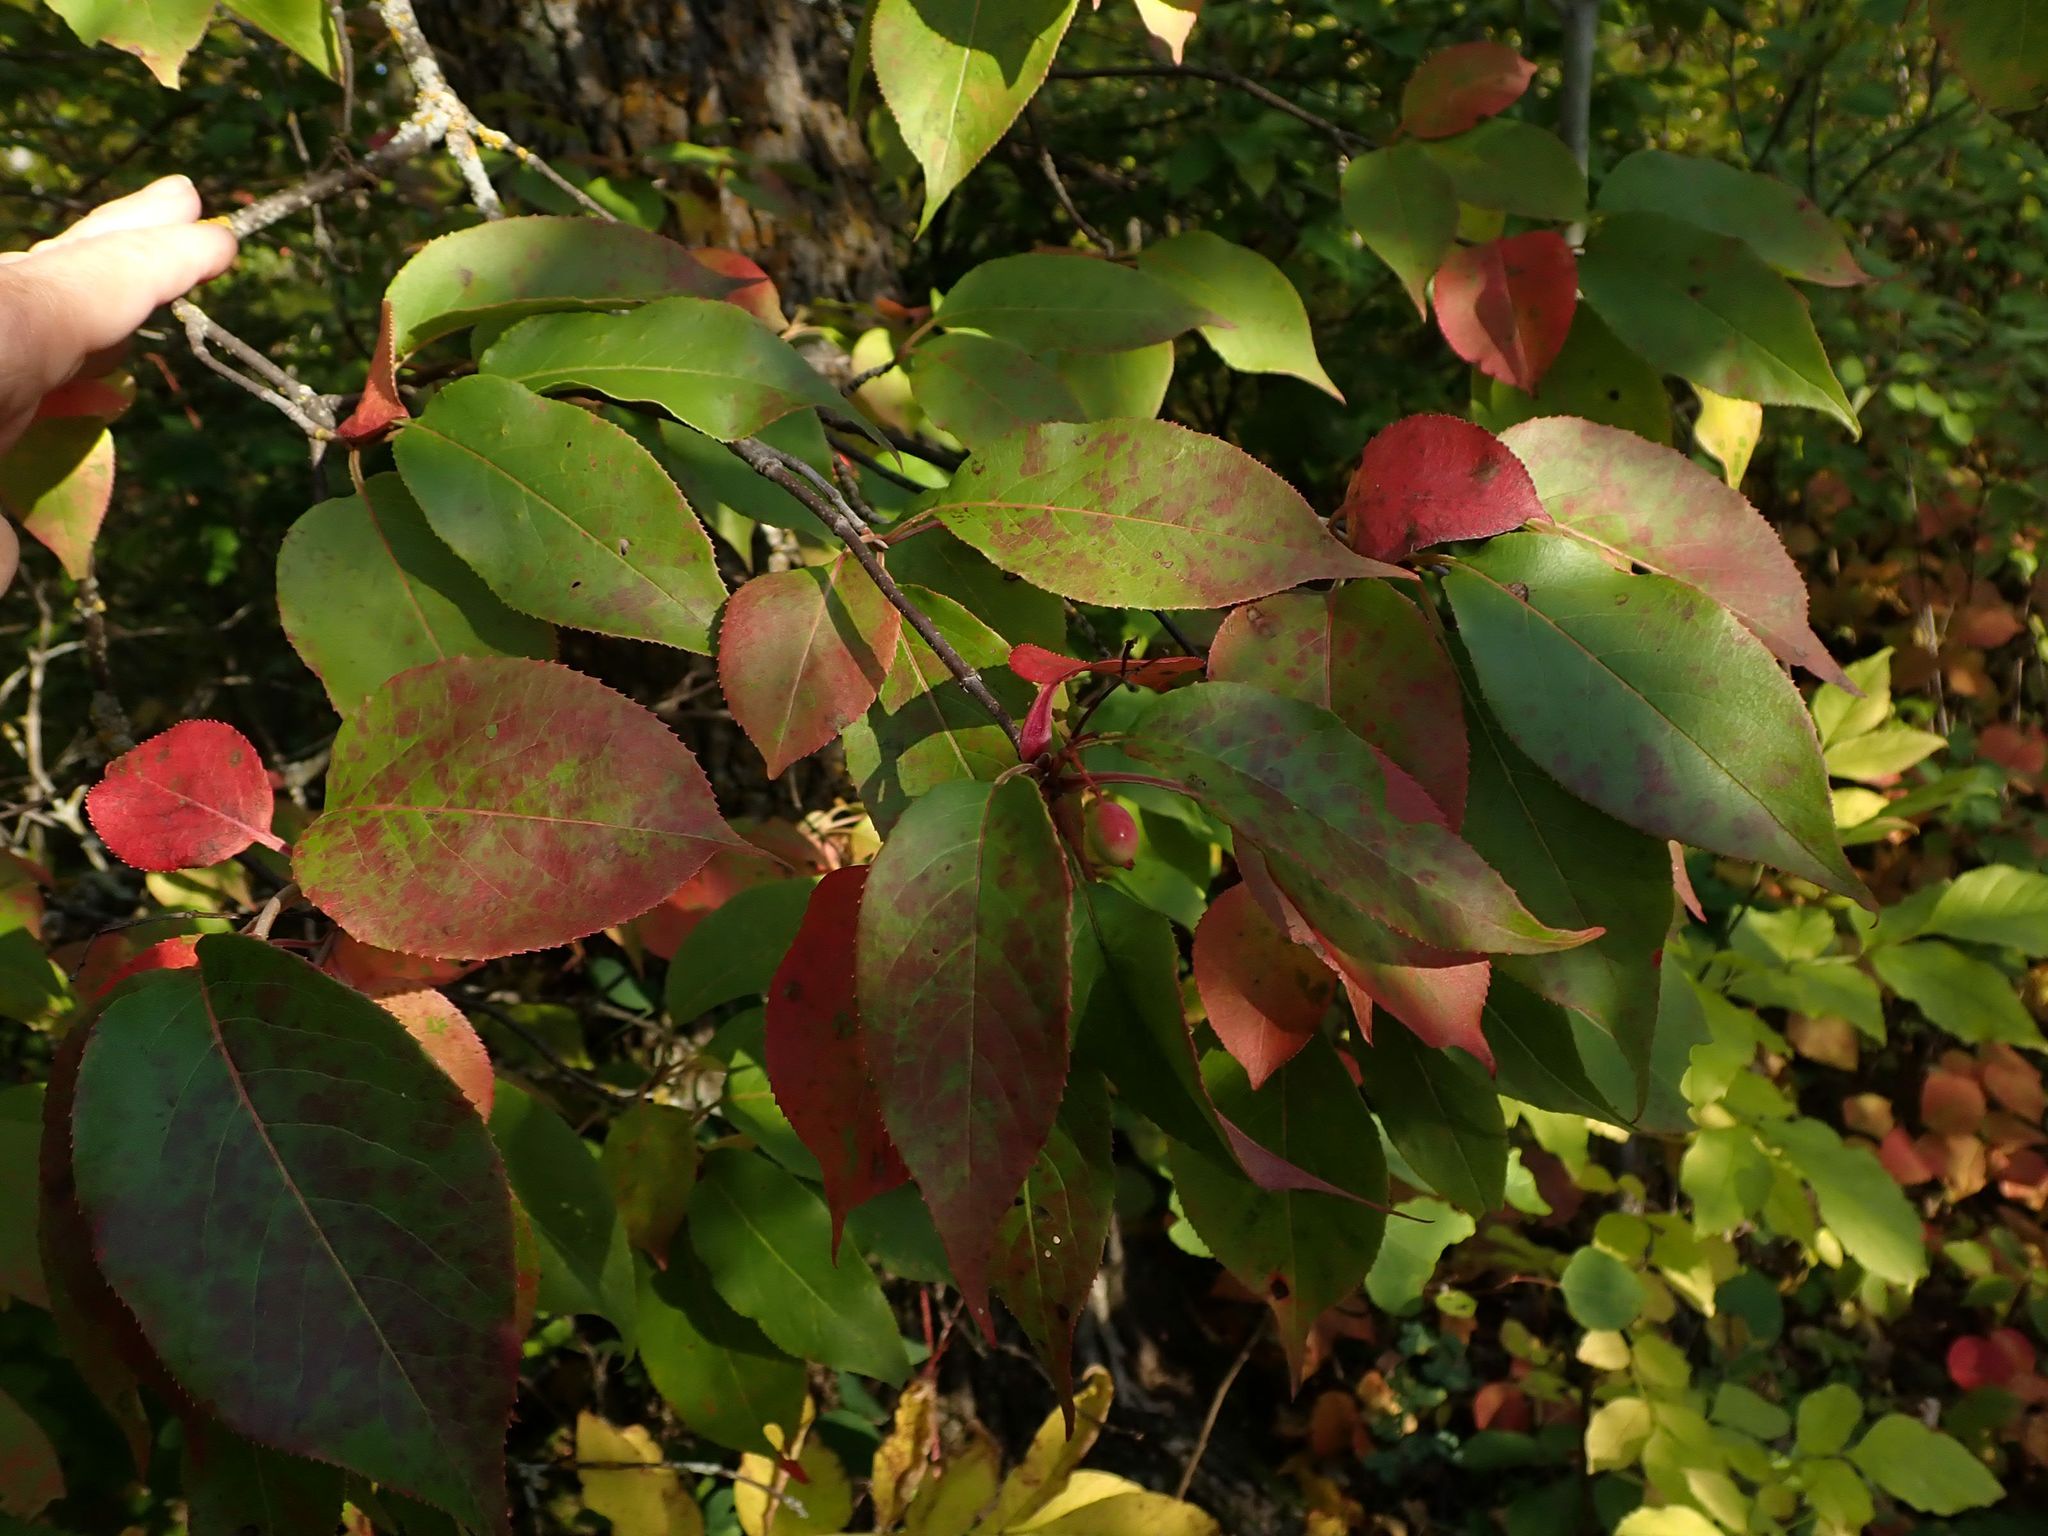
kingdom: Plantae
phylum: Tracheophyta
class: Magnoliopsida
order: Dipsacales
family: Viburnaceae
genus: Viburnum
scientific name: Viburnum lentago
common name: Black haw
